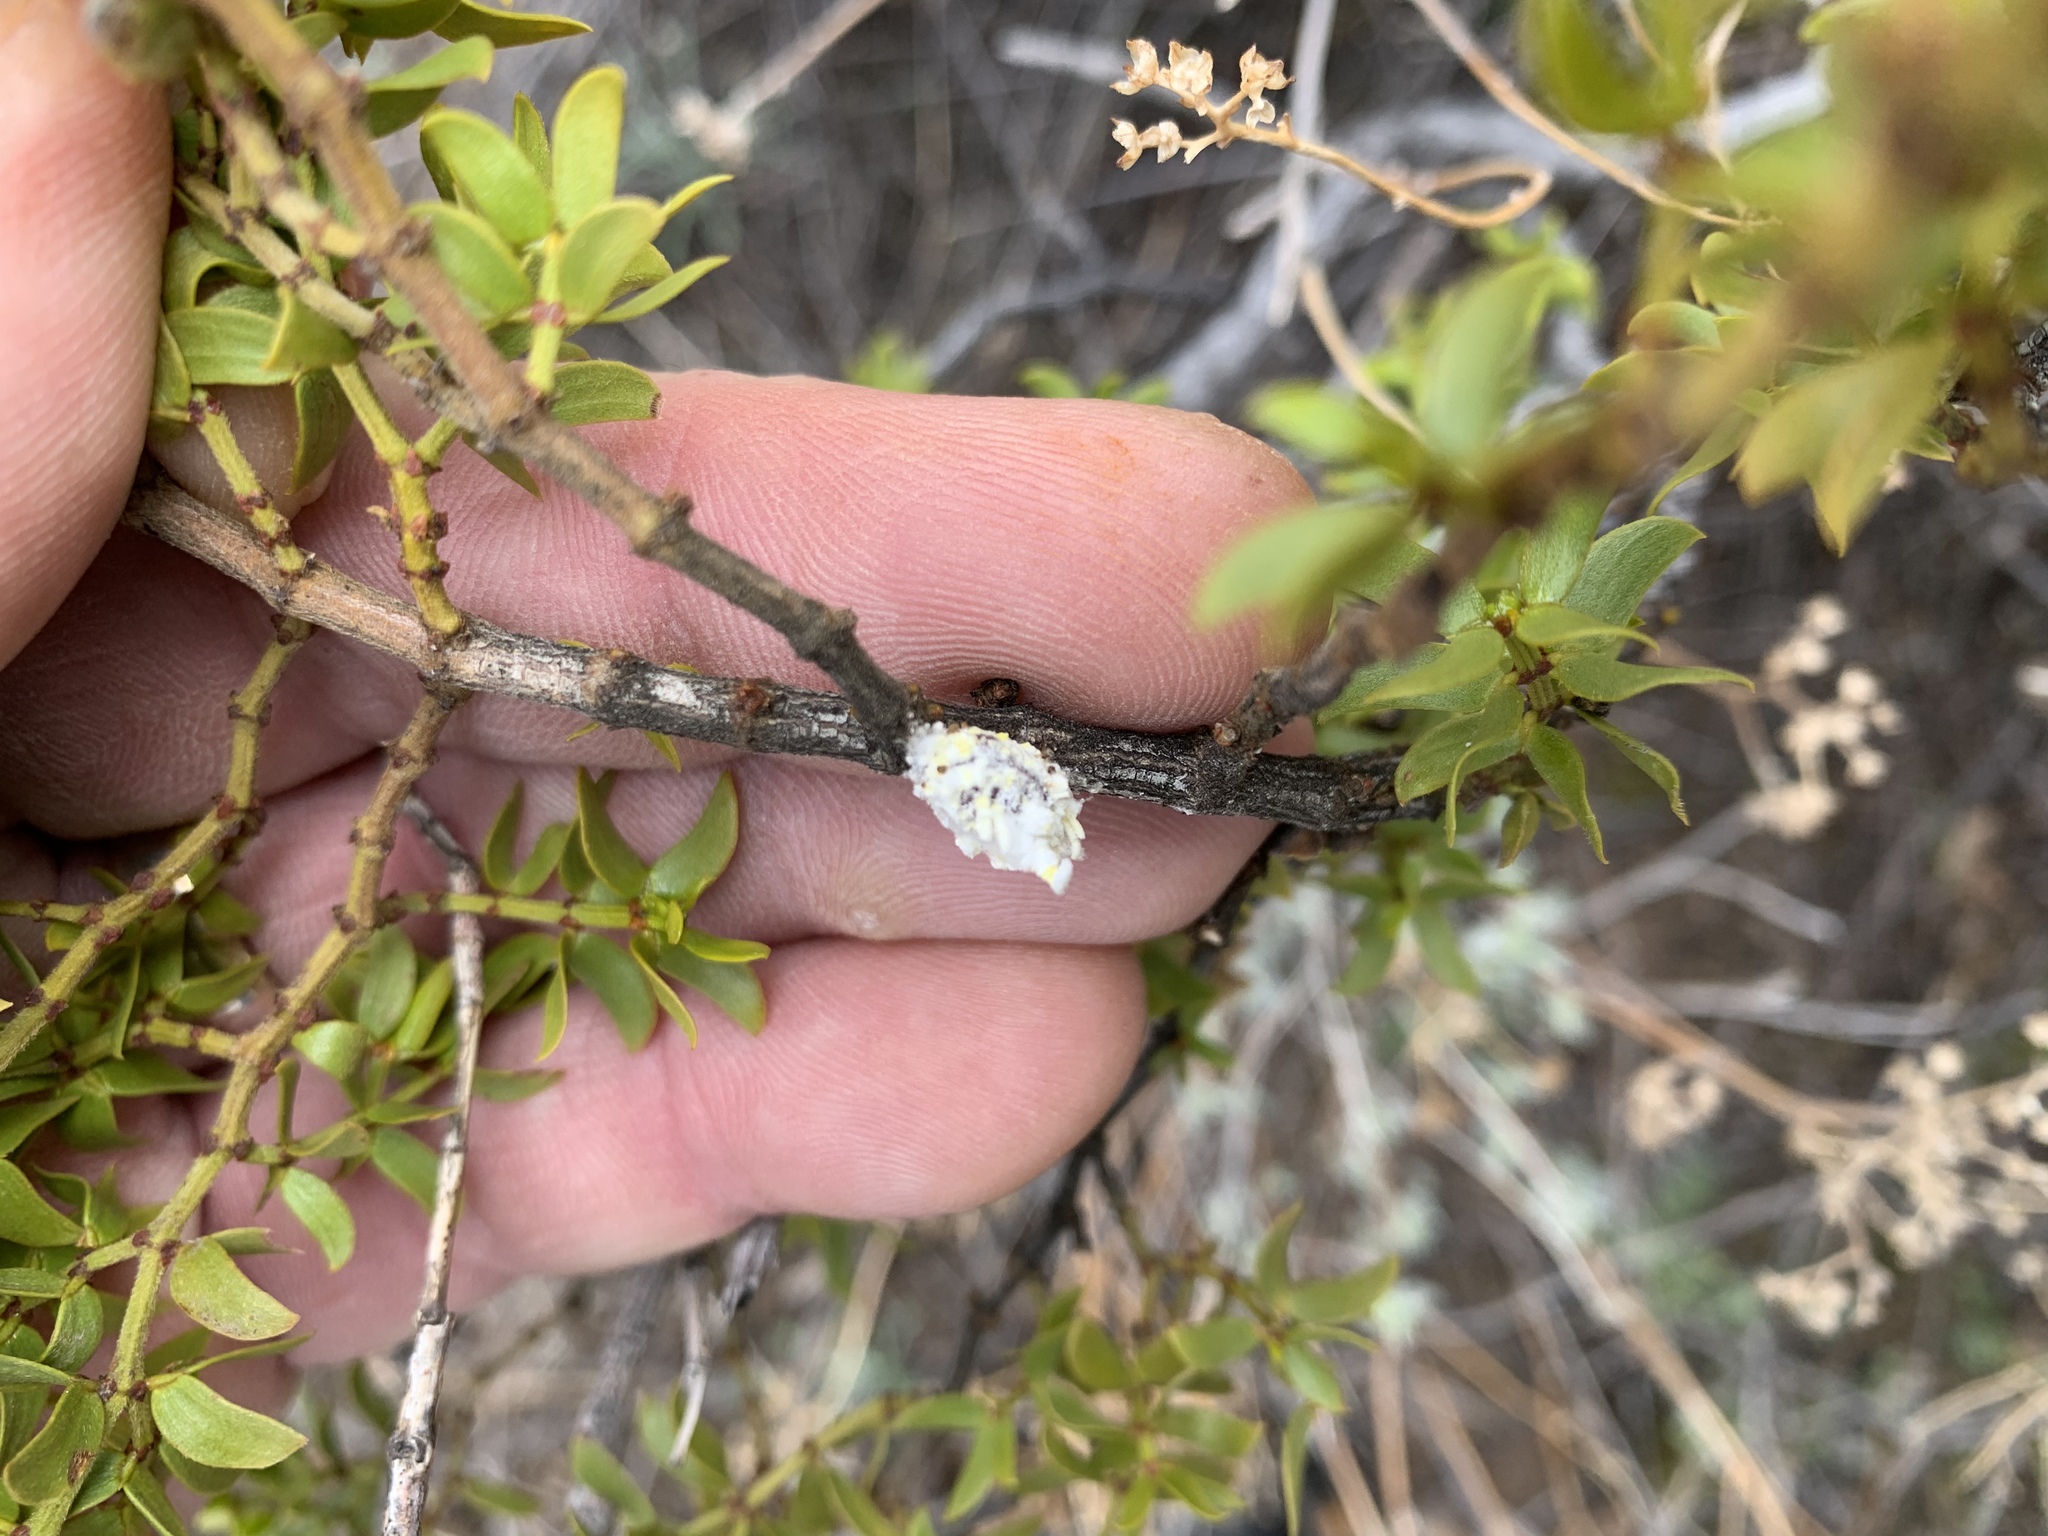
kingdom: Animalia
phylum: Arthropoda
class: Insecta
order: Hemiptera
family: Margarodidae
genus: Crypticerya
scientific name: Crypticerya rileyi
